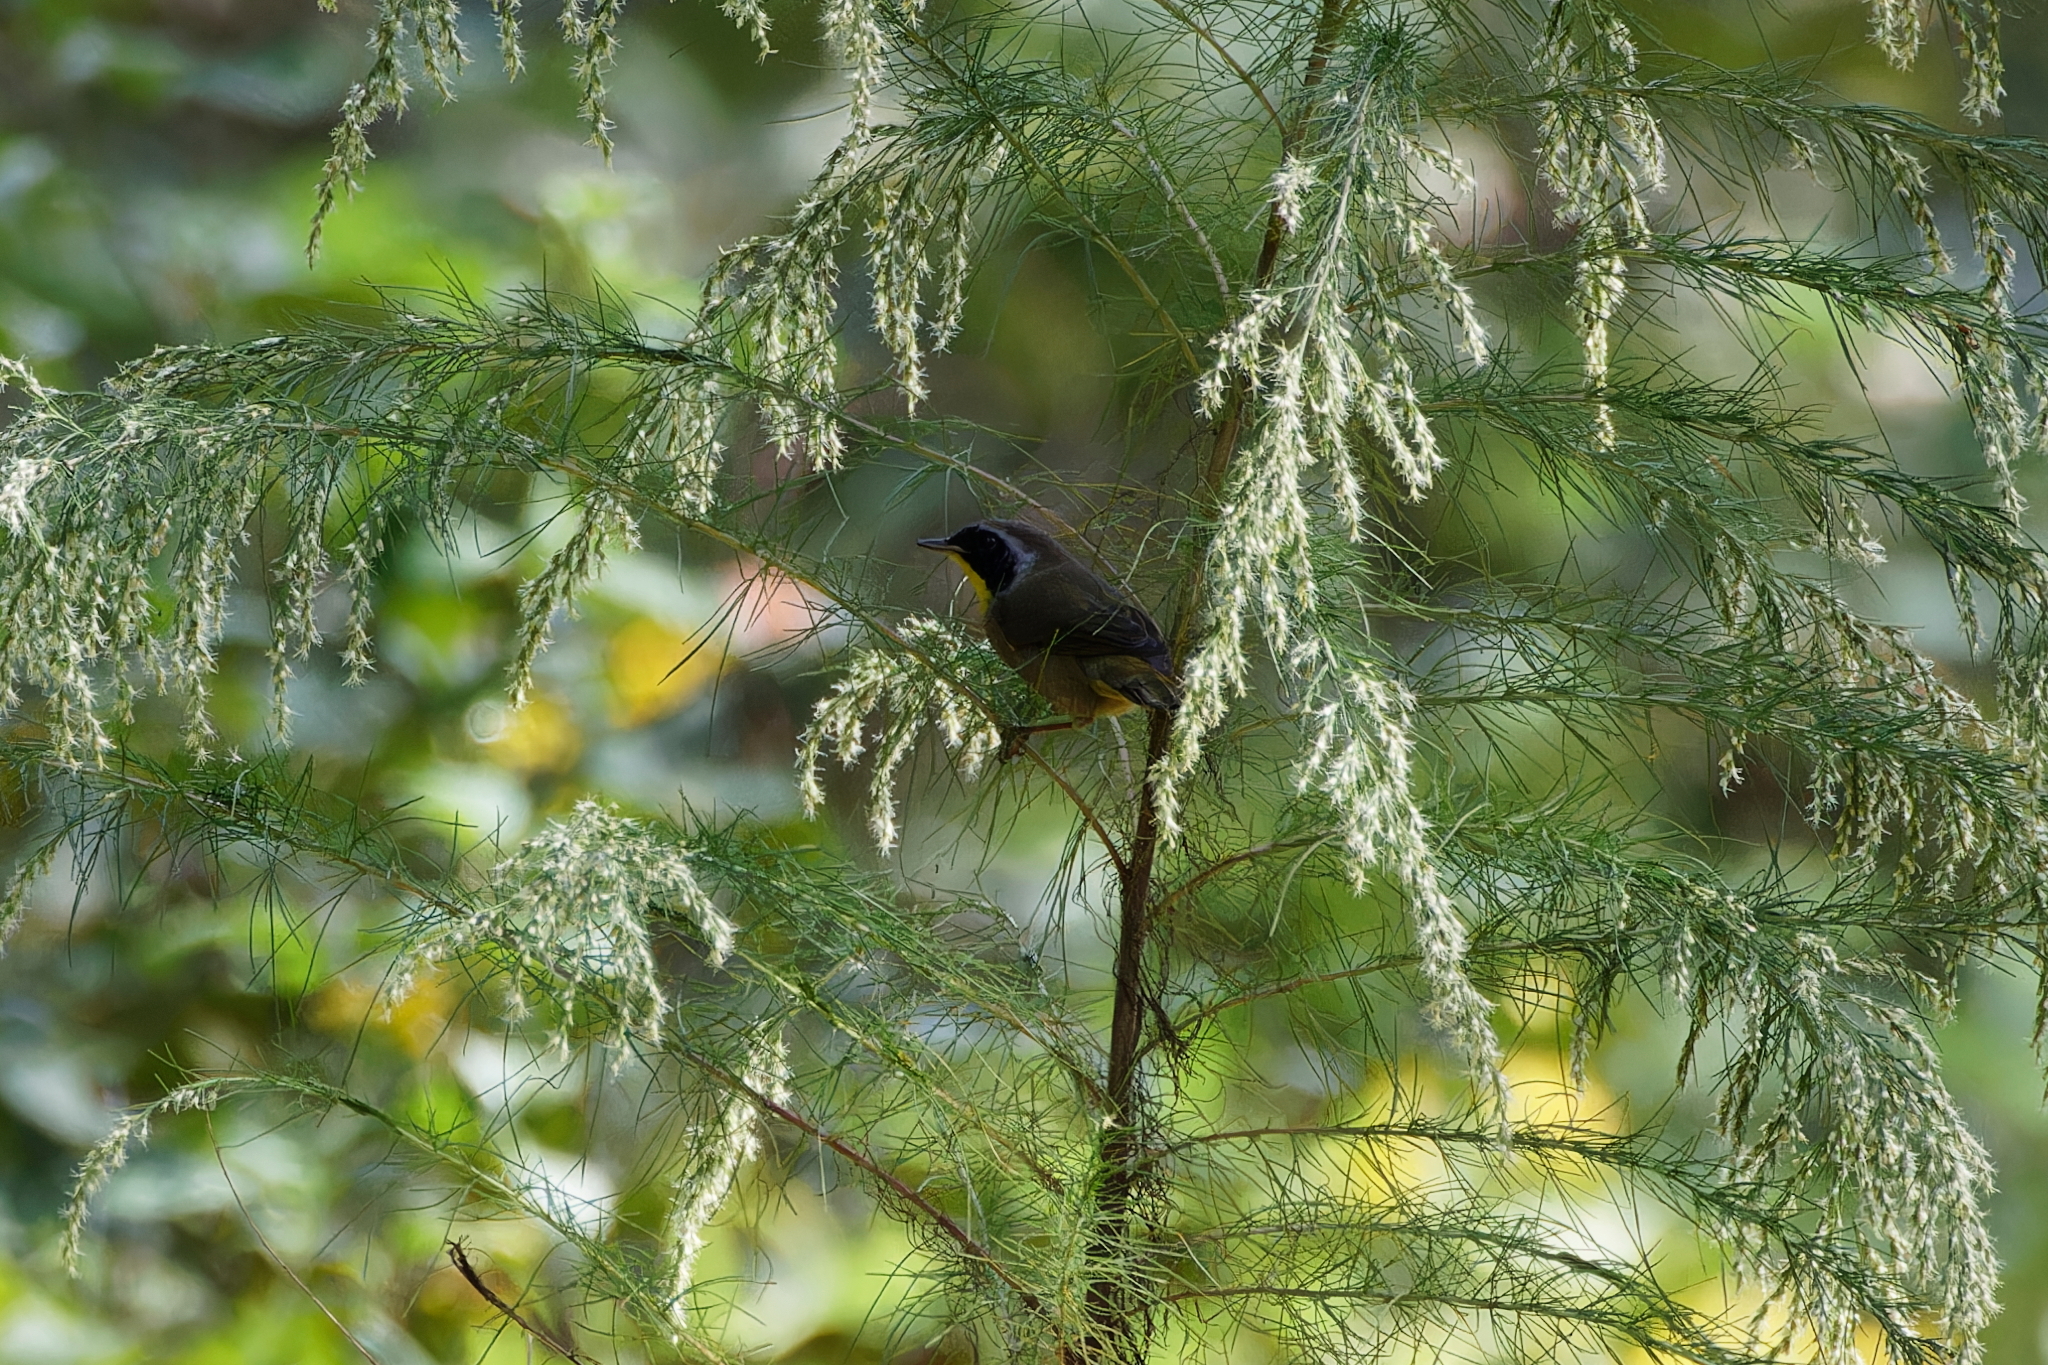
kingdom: Animalia
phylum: Chordata
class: Aves
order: Passeriformes
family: Parulidae
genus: Geothlypis
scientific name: Geothlypis trichas
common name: Common yellowthroat
